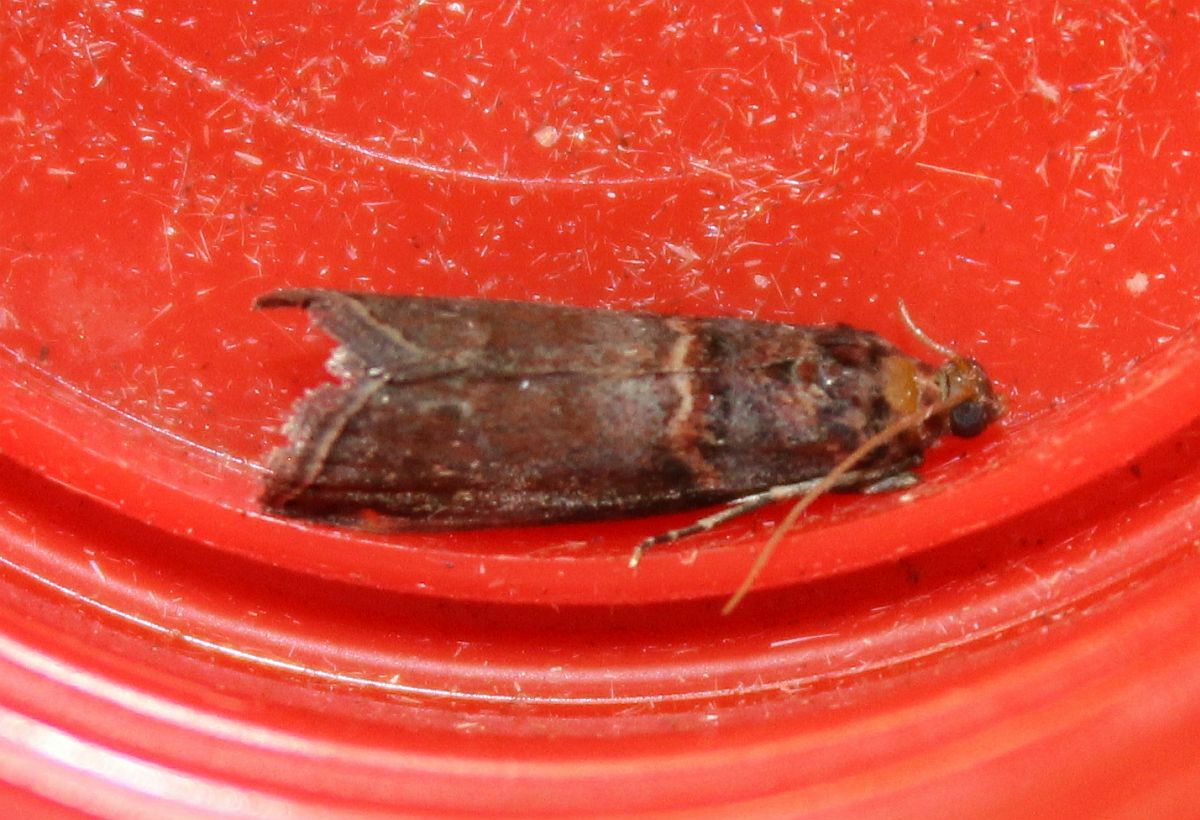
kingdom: Animalia
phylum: Arthropoda
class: Insecta
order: Lepidoptera
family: Pyralidae
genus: Acrobasis
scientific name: Acrobasis advenella
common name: Grey knot-horn
